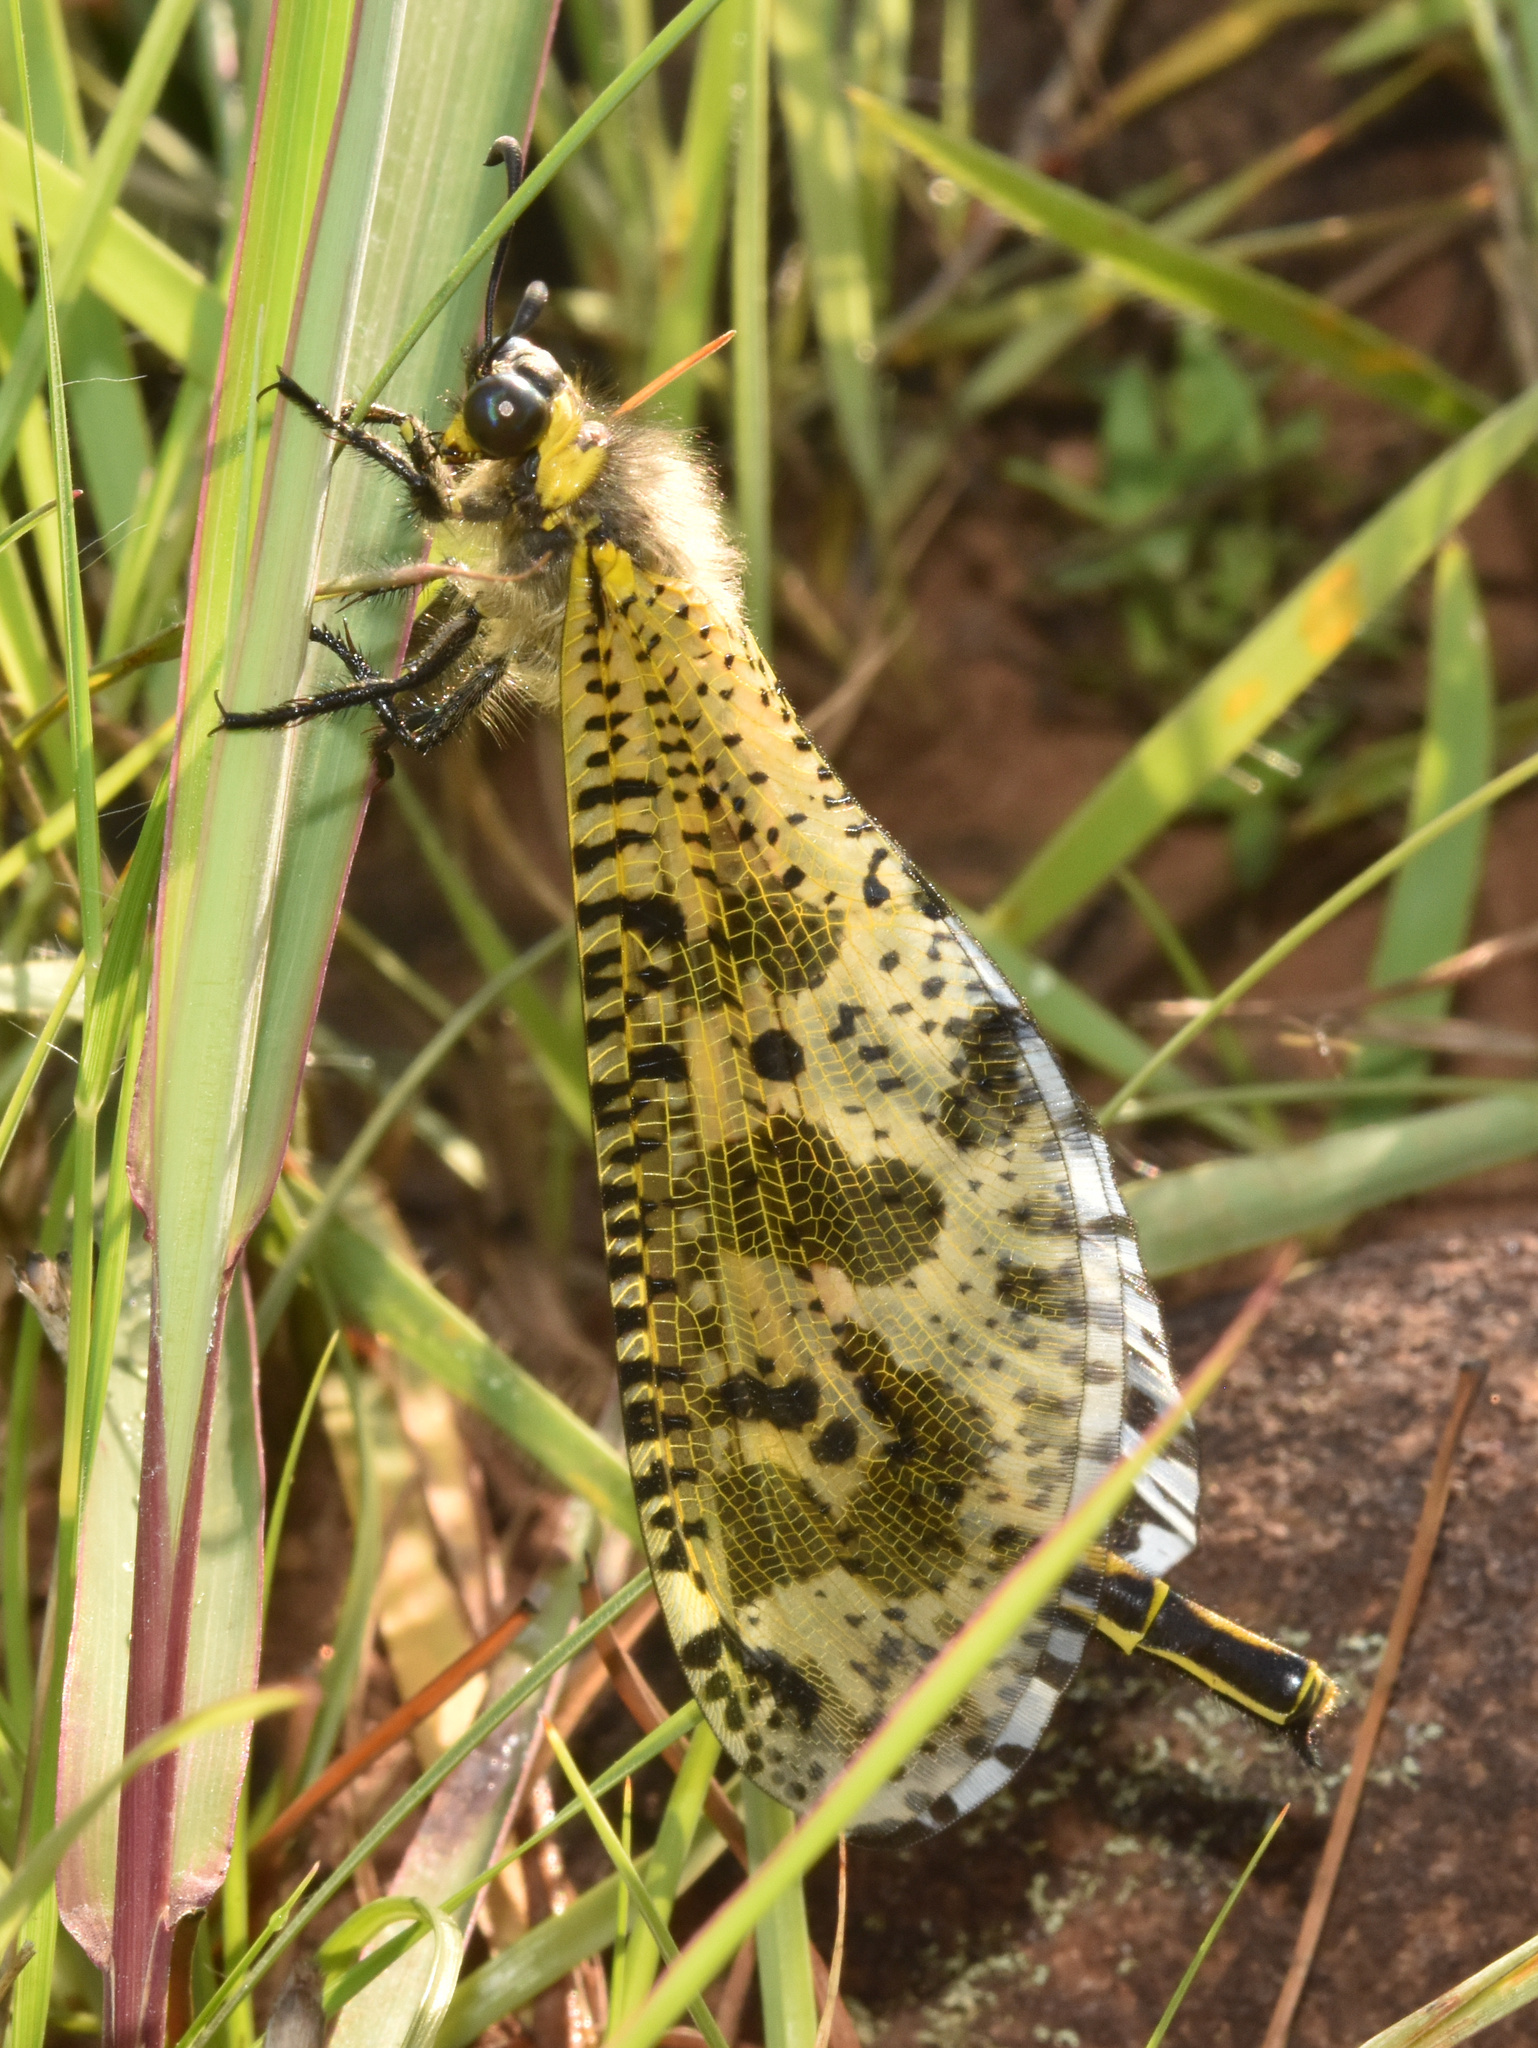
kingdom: Animalia
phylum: Arthropoda
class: Insecta
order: Neuroptera
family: Myrmeleontidae
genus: Palpares
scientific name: Palpares caffer
